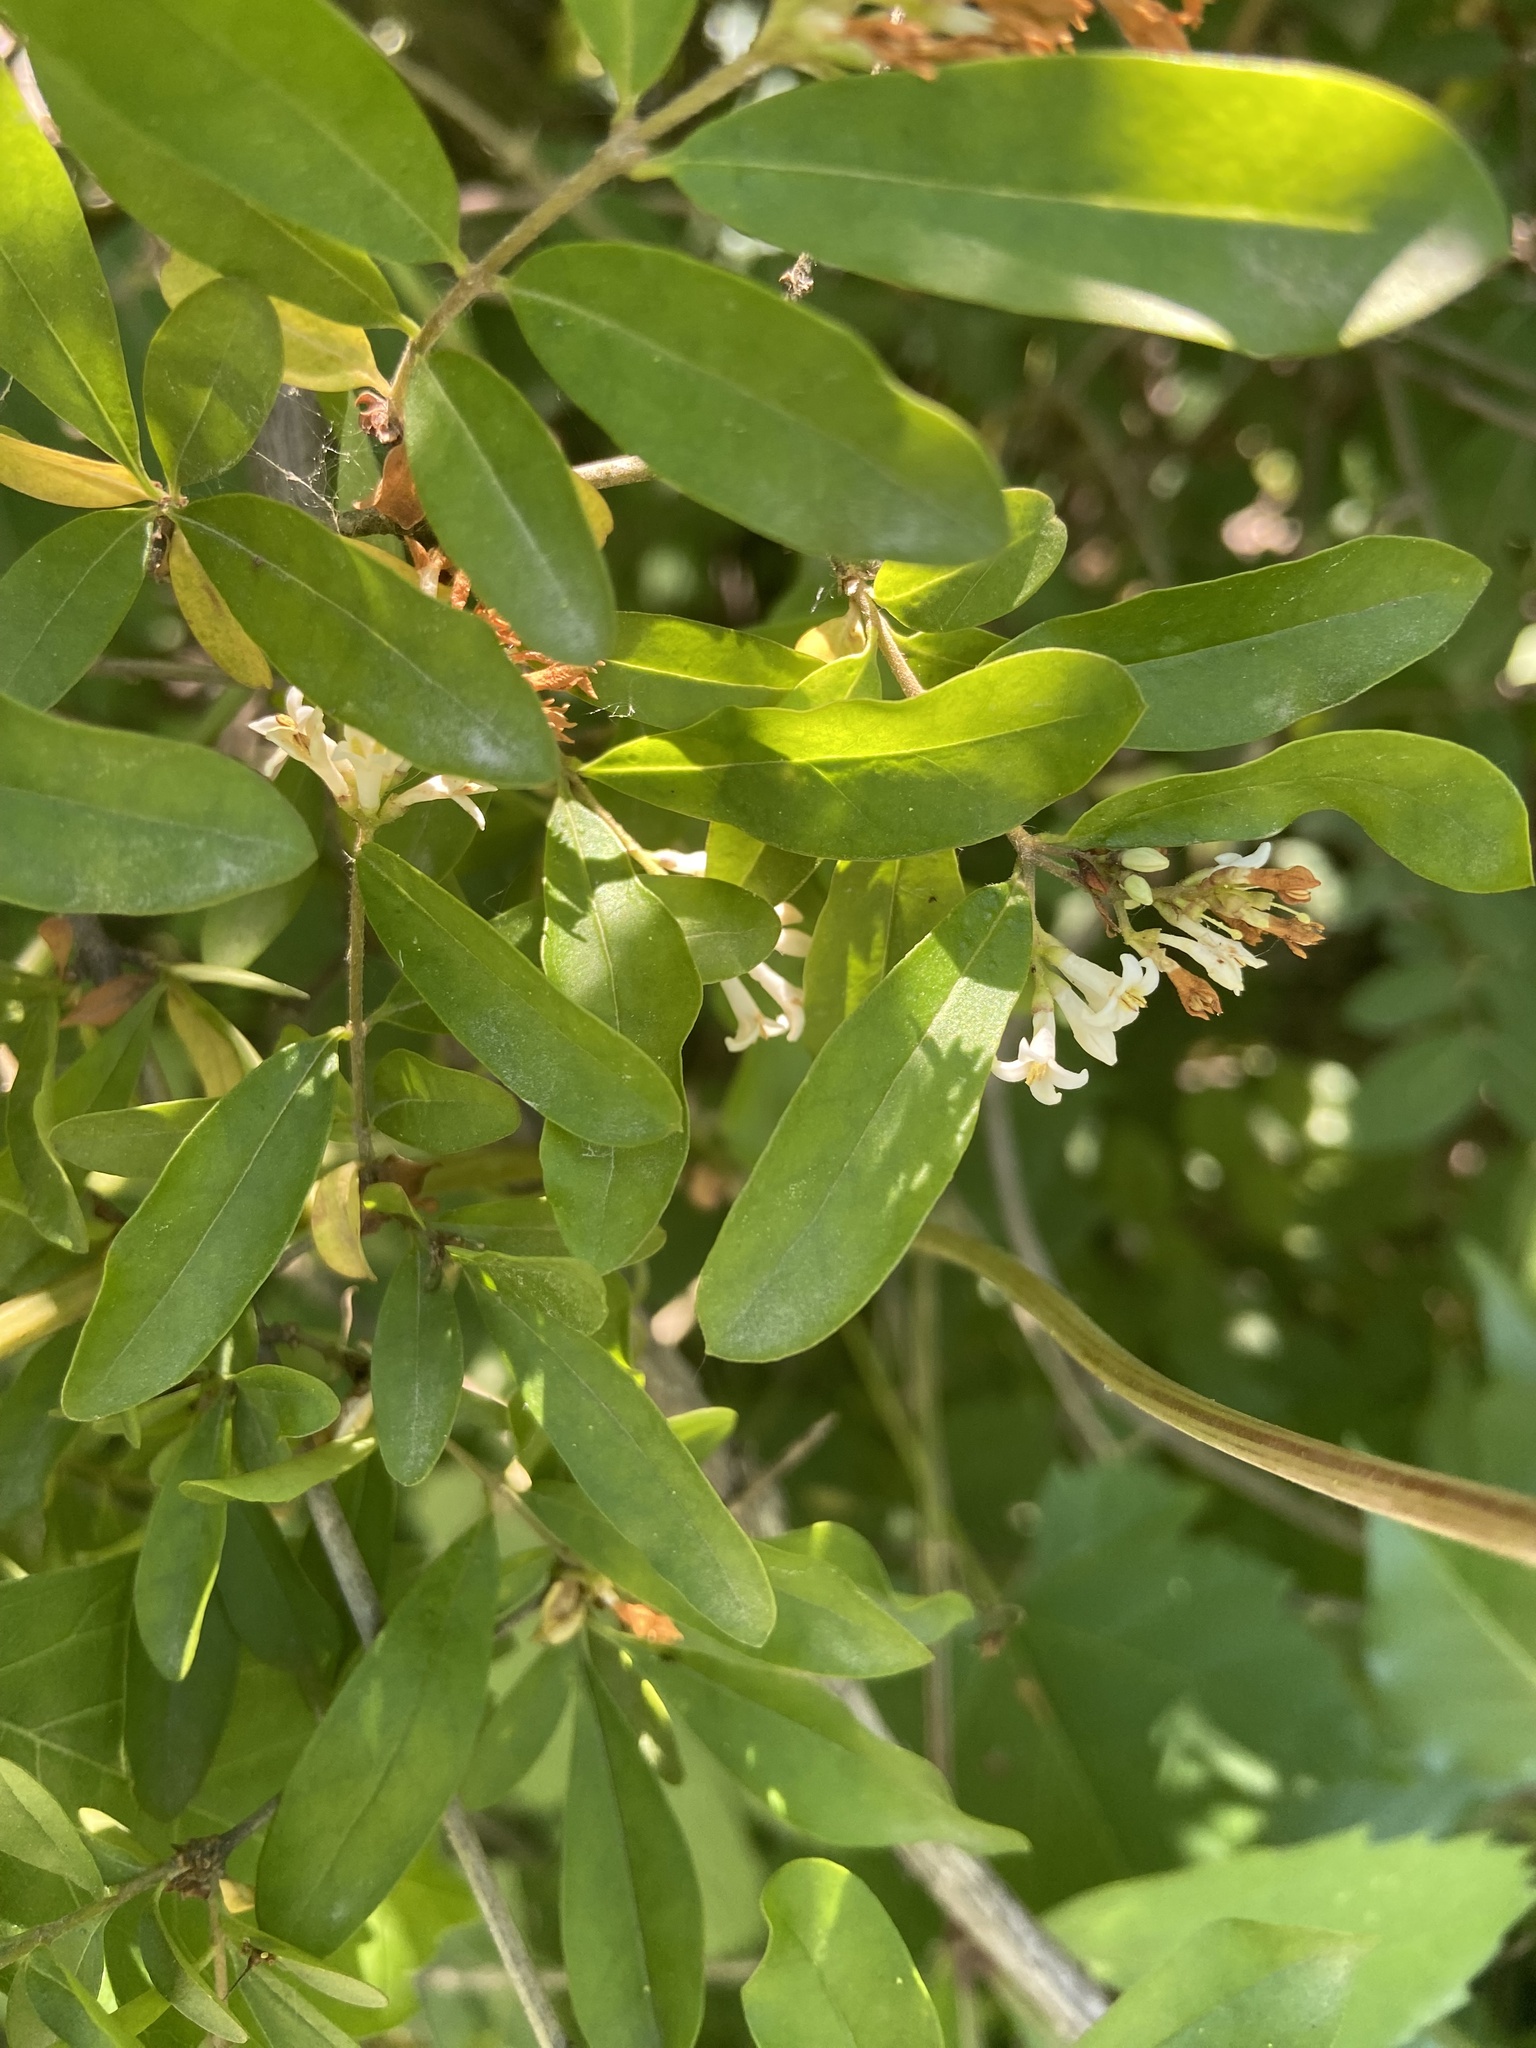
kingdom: Plantae
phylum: Tracheophyta
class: Magnoliopsida
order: Lamiales
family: Oleaceae
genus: Ligustrum
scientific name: Ligustrum obtusifolium
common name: Border privet
